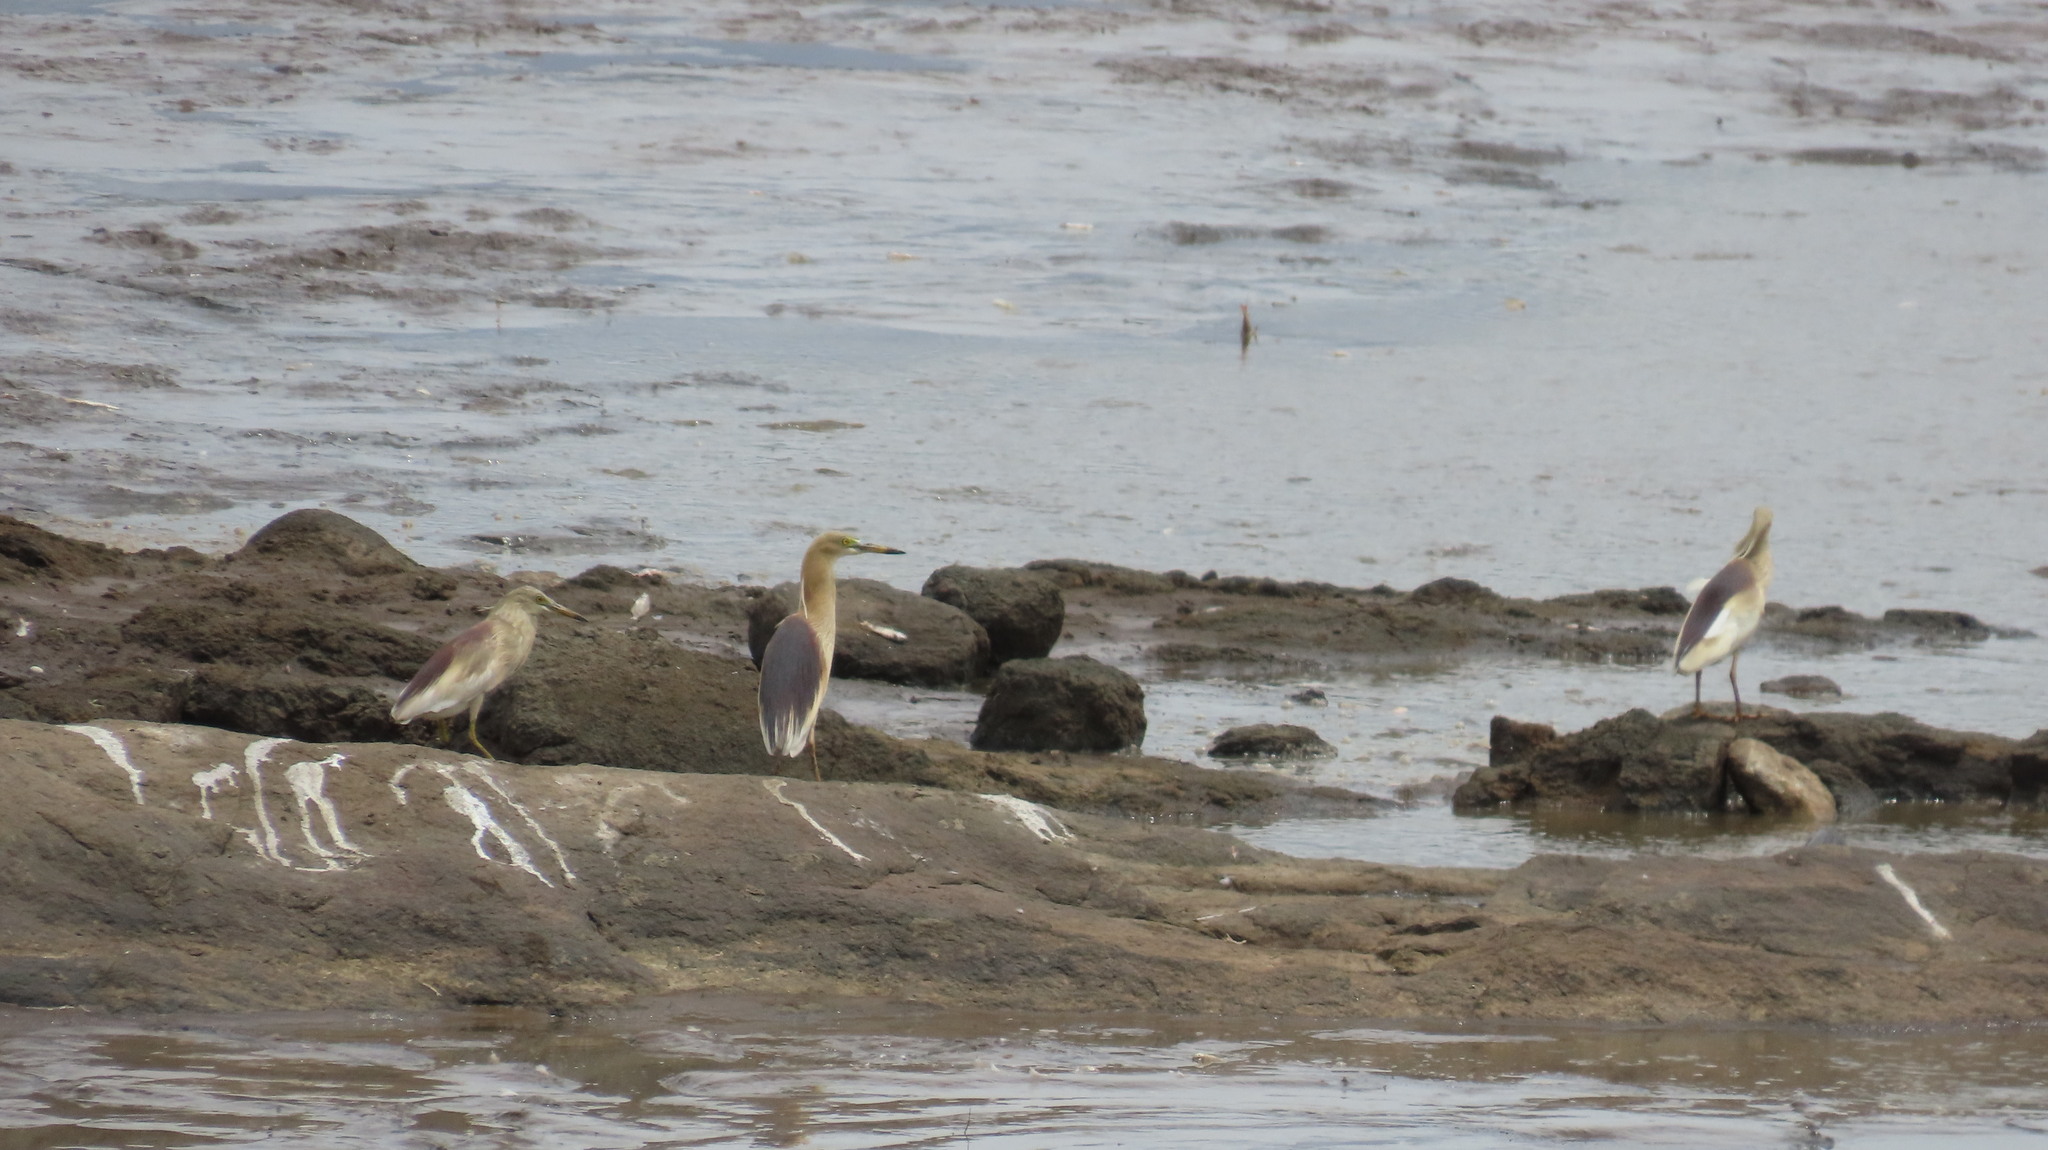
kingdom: Animalia
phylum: Chordata
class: Aves
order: Pelecaniformes
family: Ardeidae
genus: Ardeola
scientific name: Ardeola grayii
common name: Indian pond heron
